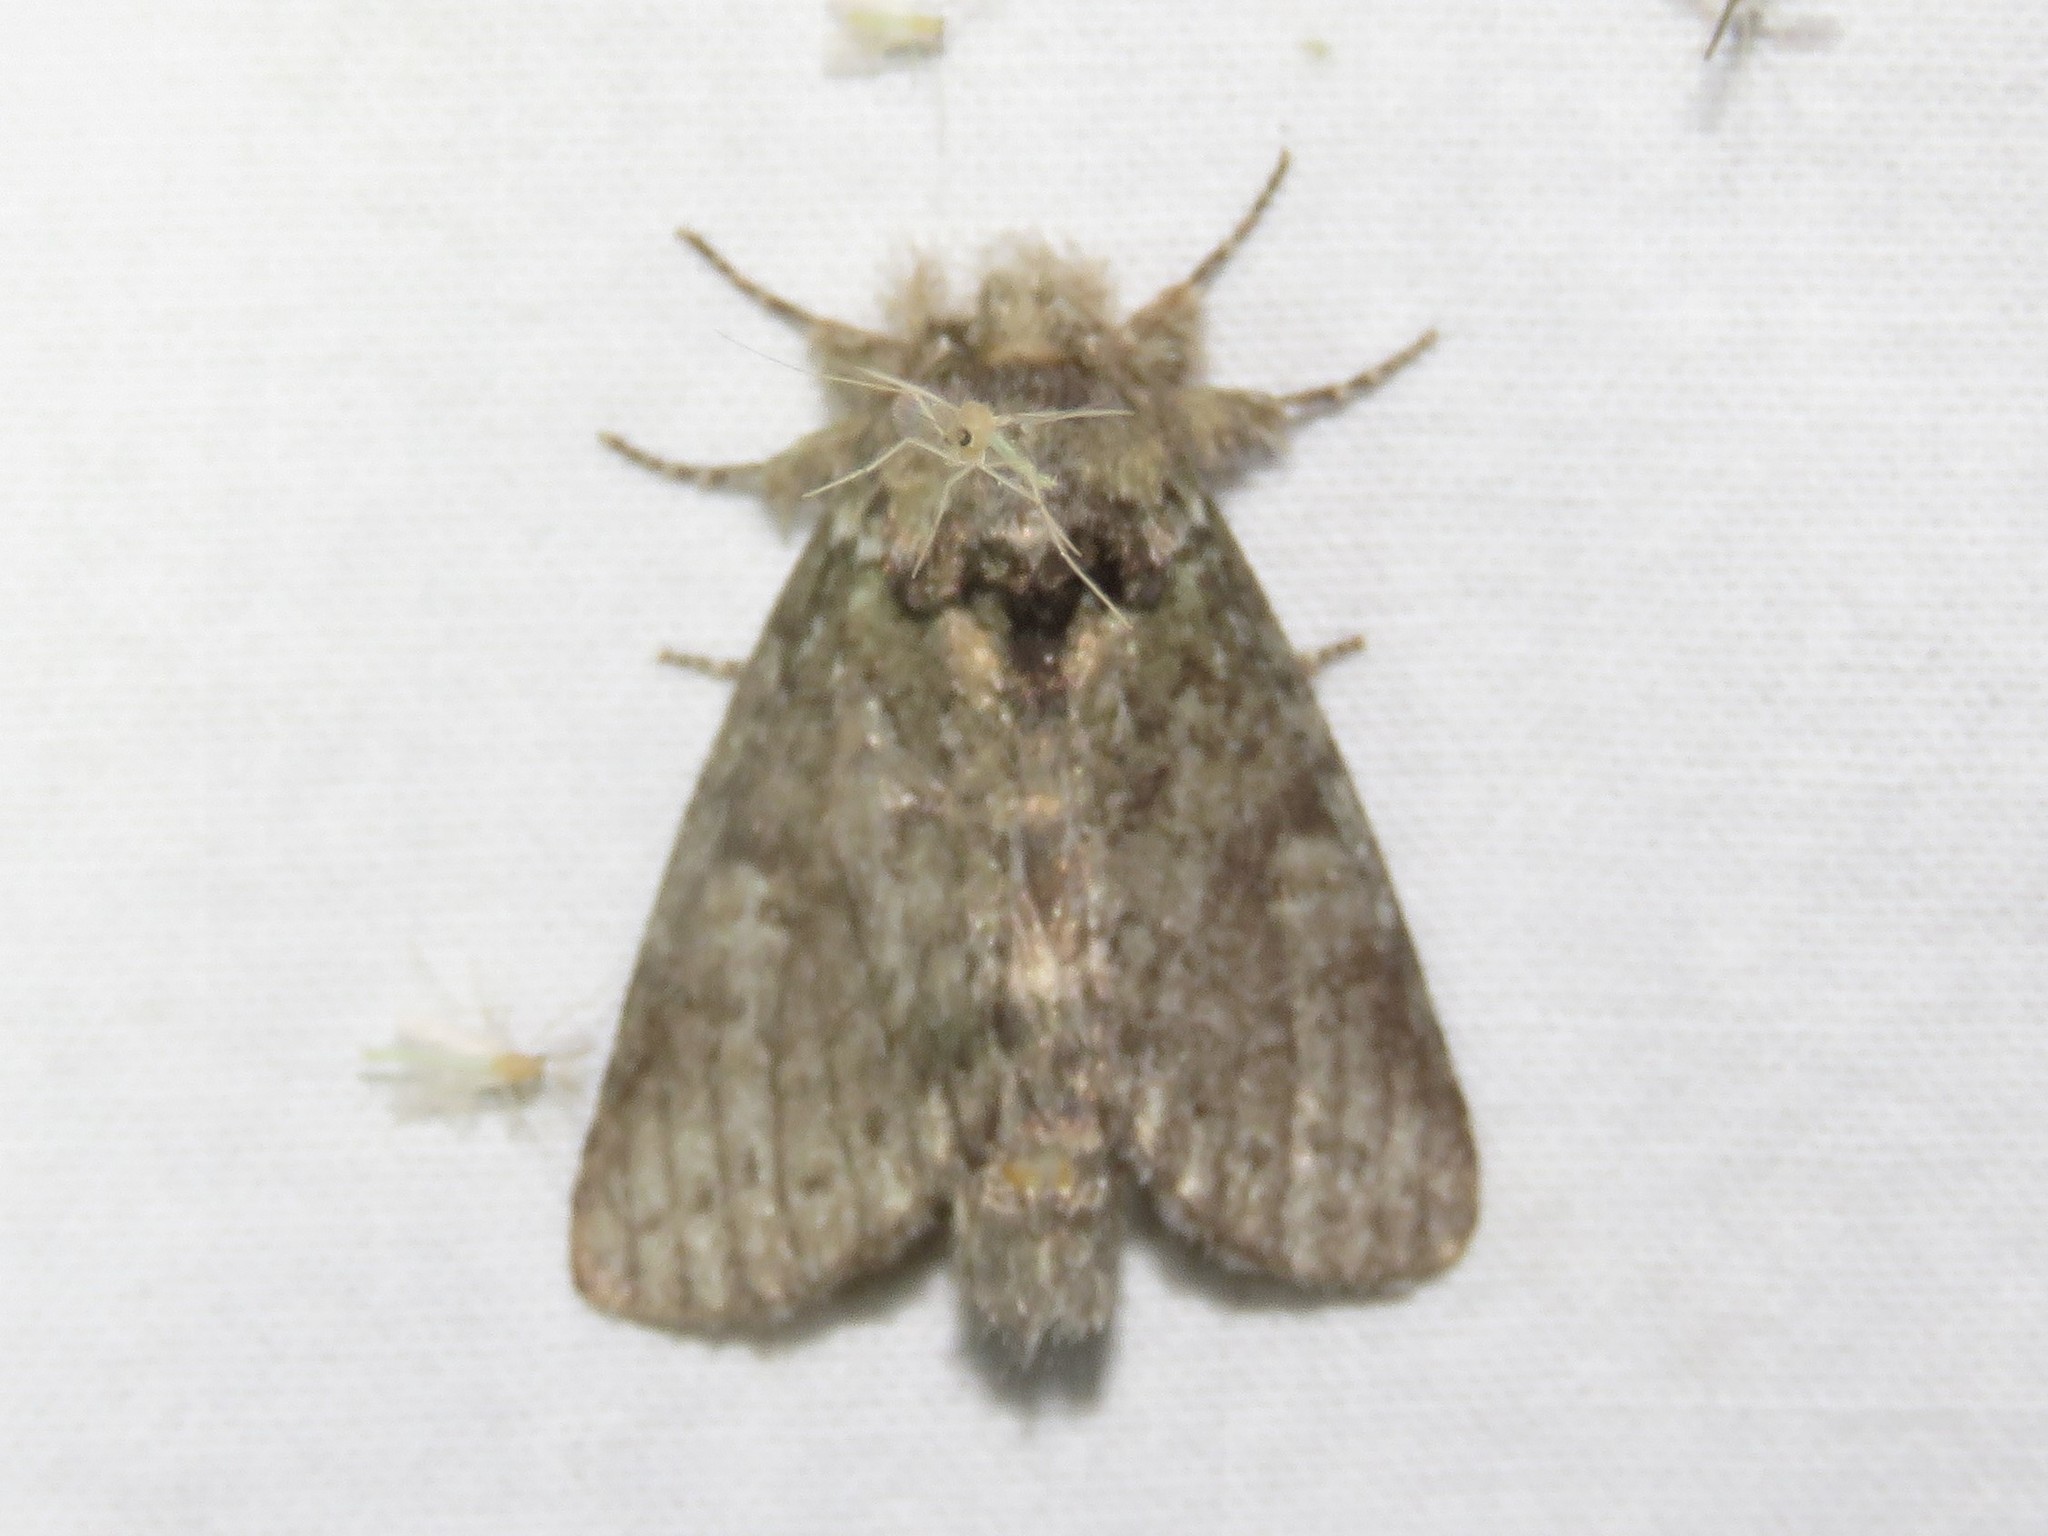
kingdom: Animalia
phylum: Arthropoda
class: Insecta
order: Lepidoptera
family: Notodontidae
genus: Disphragis
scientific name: Disphragis Cecrita guttivitta
